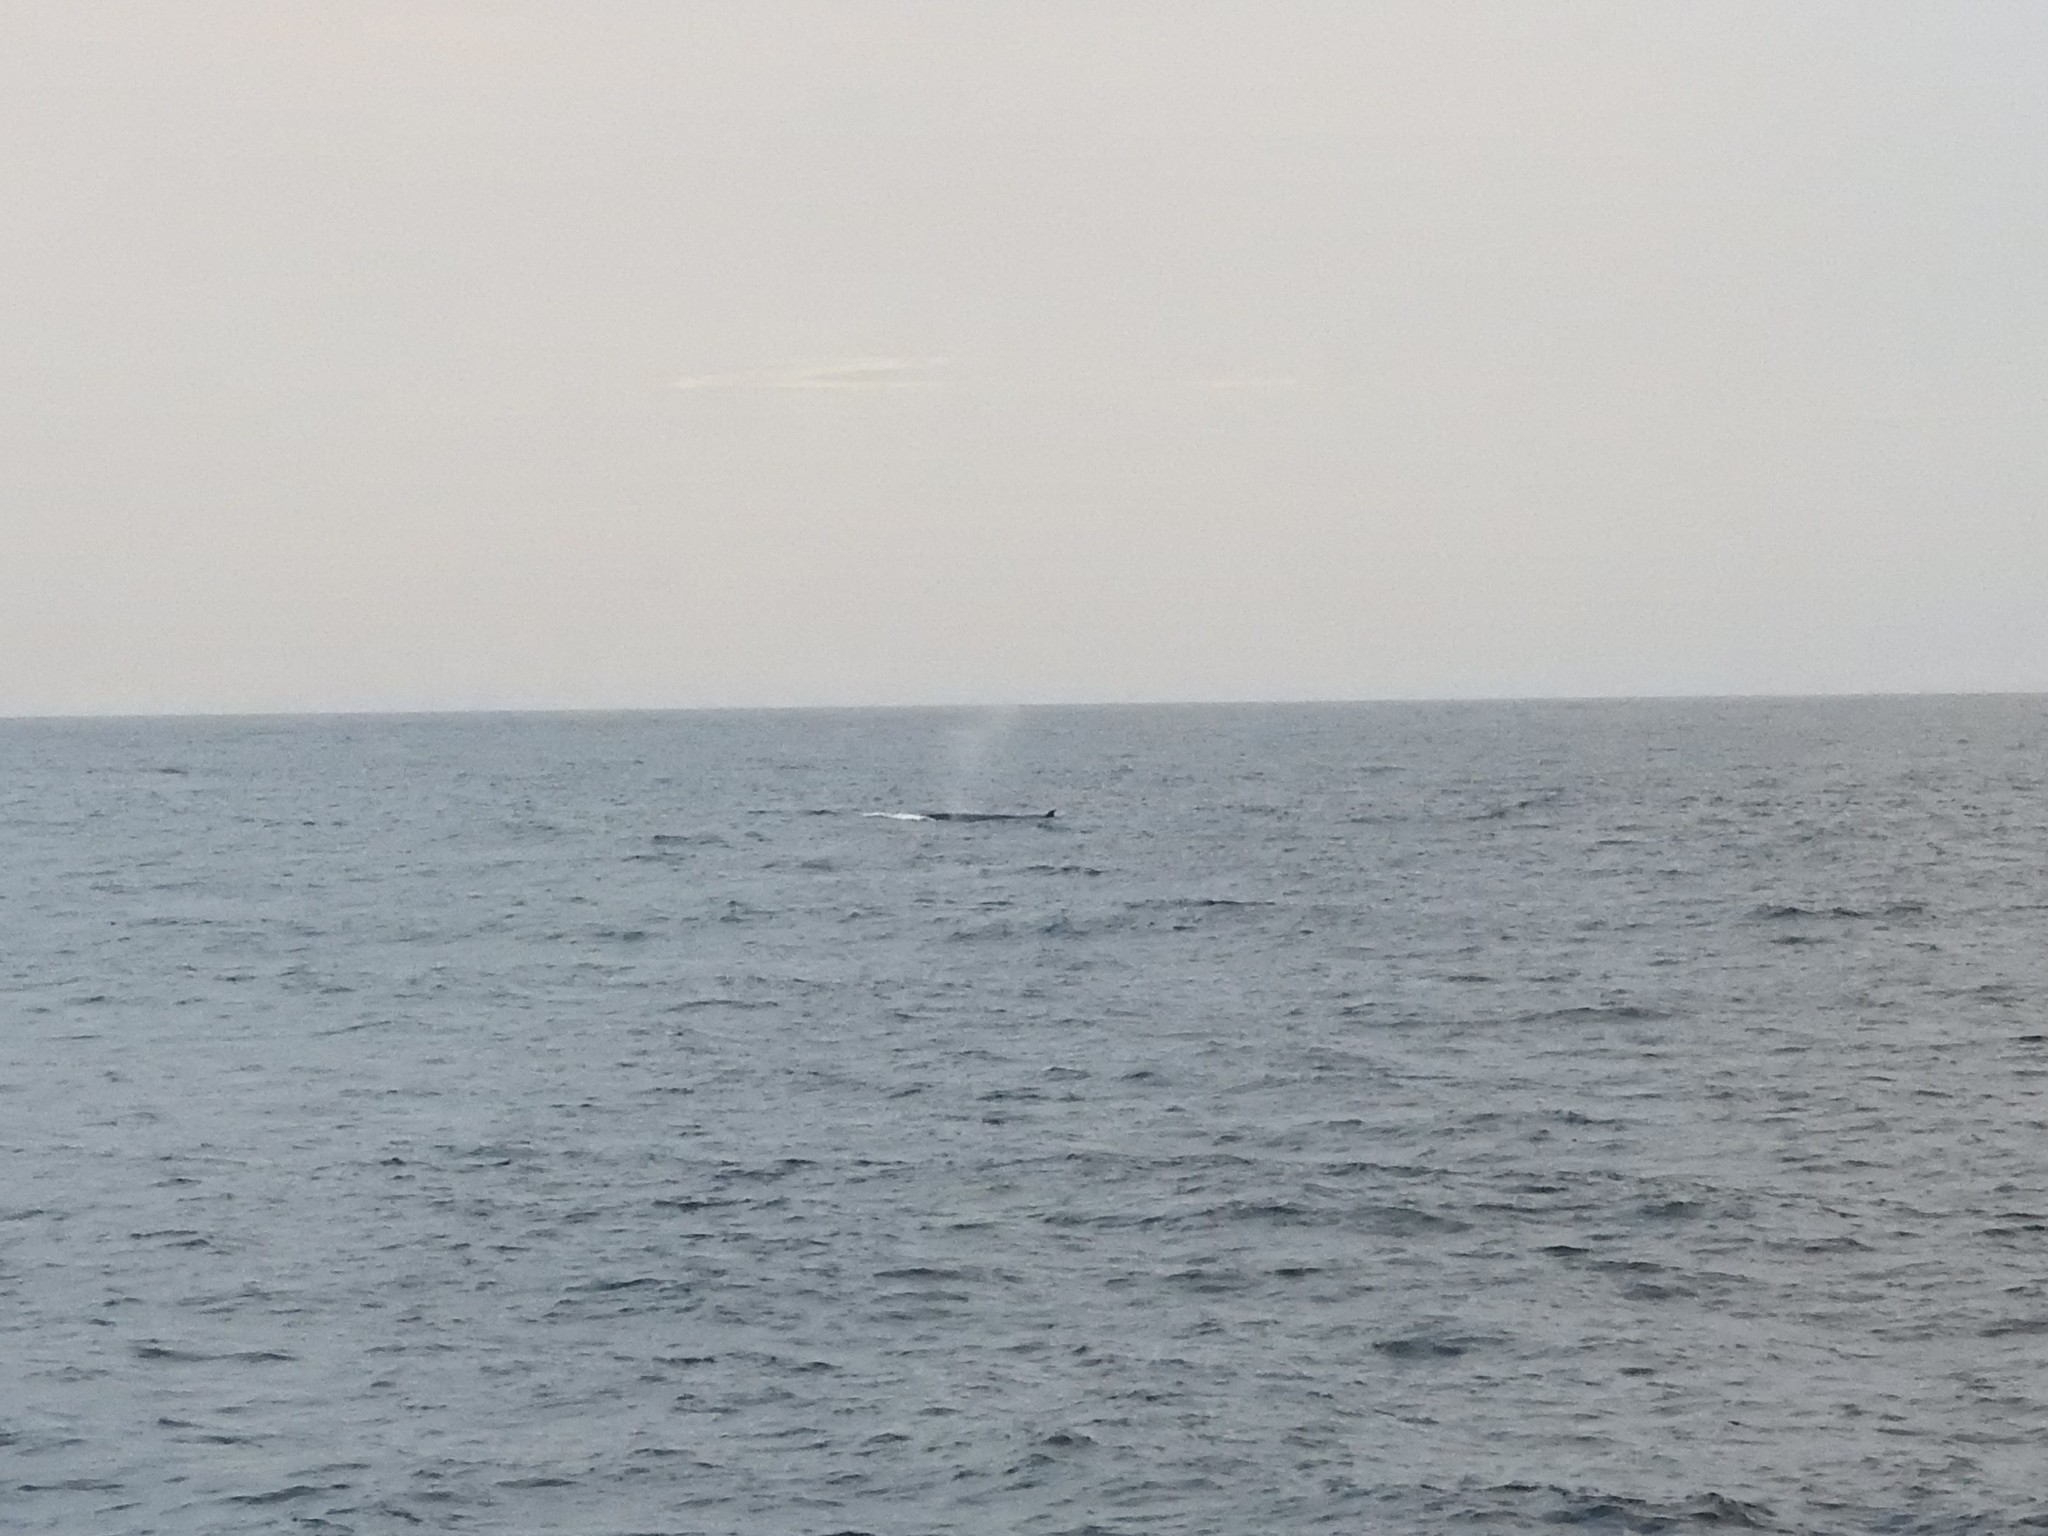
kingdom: Animalia
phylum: Chordata
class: Mammalia
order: Cetacea
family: Balaenopteridae
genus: Balaenoptera
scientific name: Balaenoptera edeni
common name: Bryde's whale
